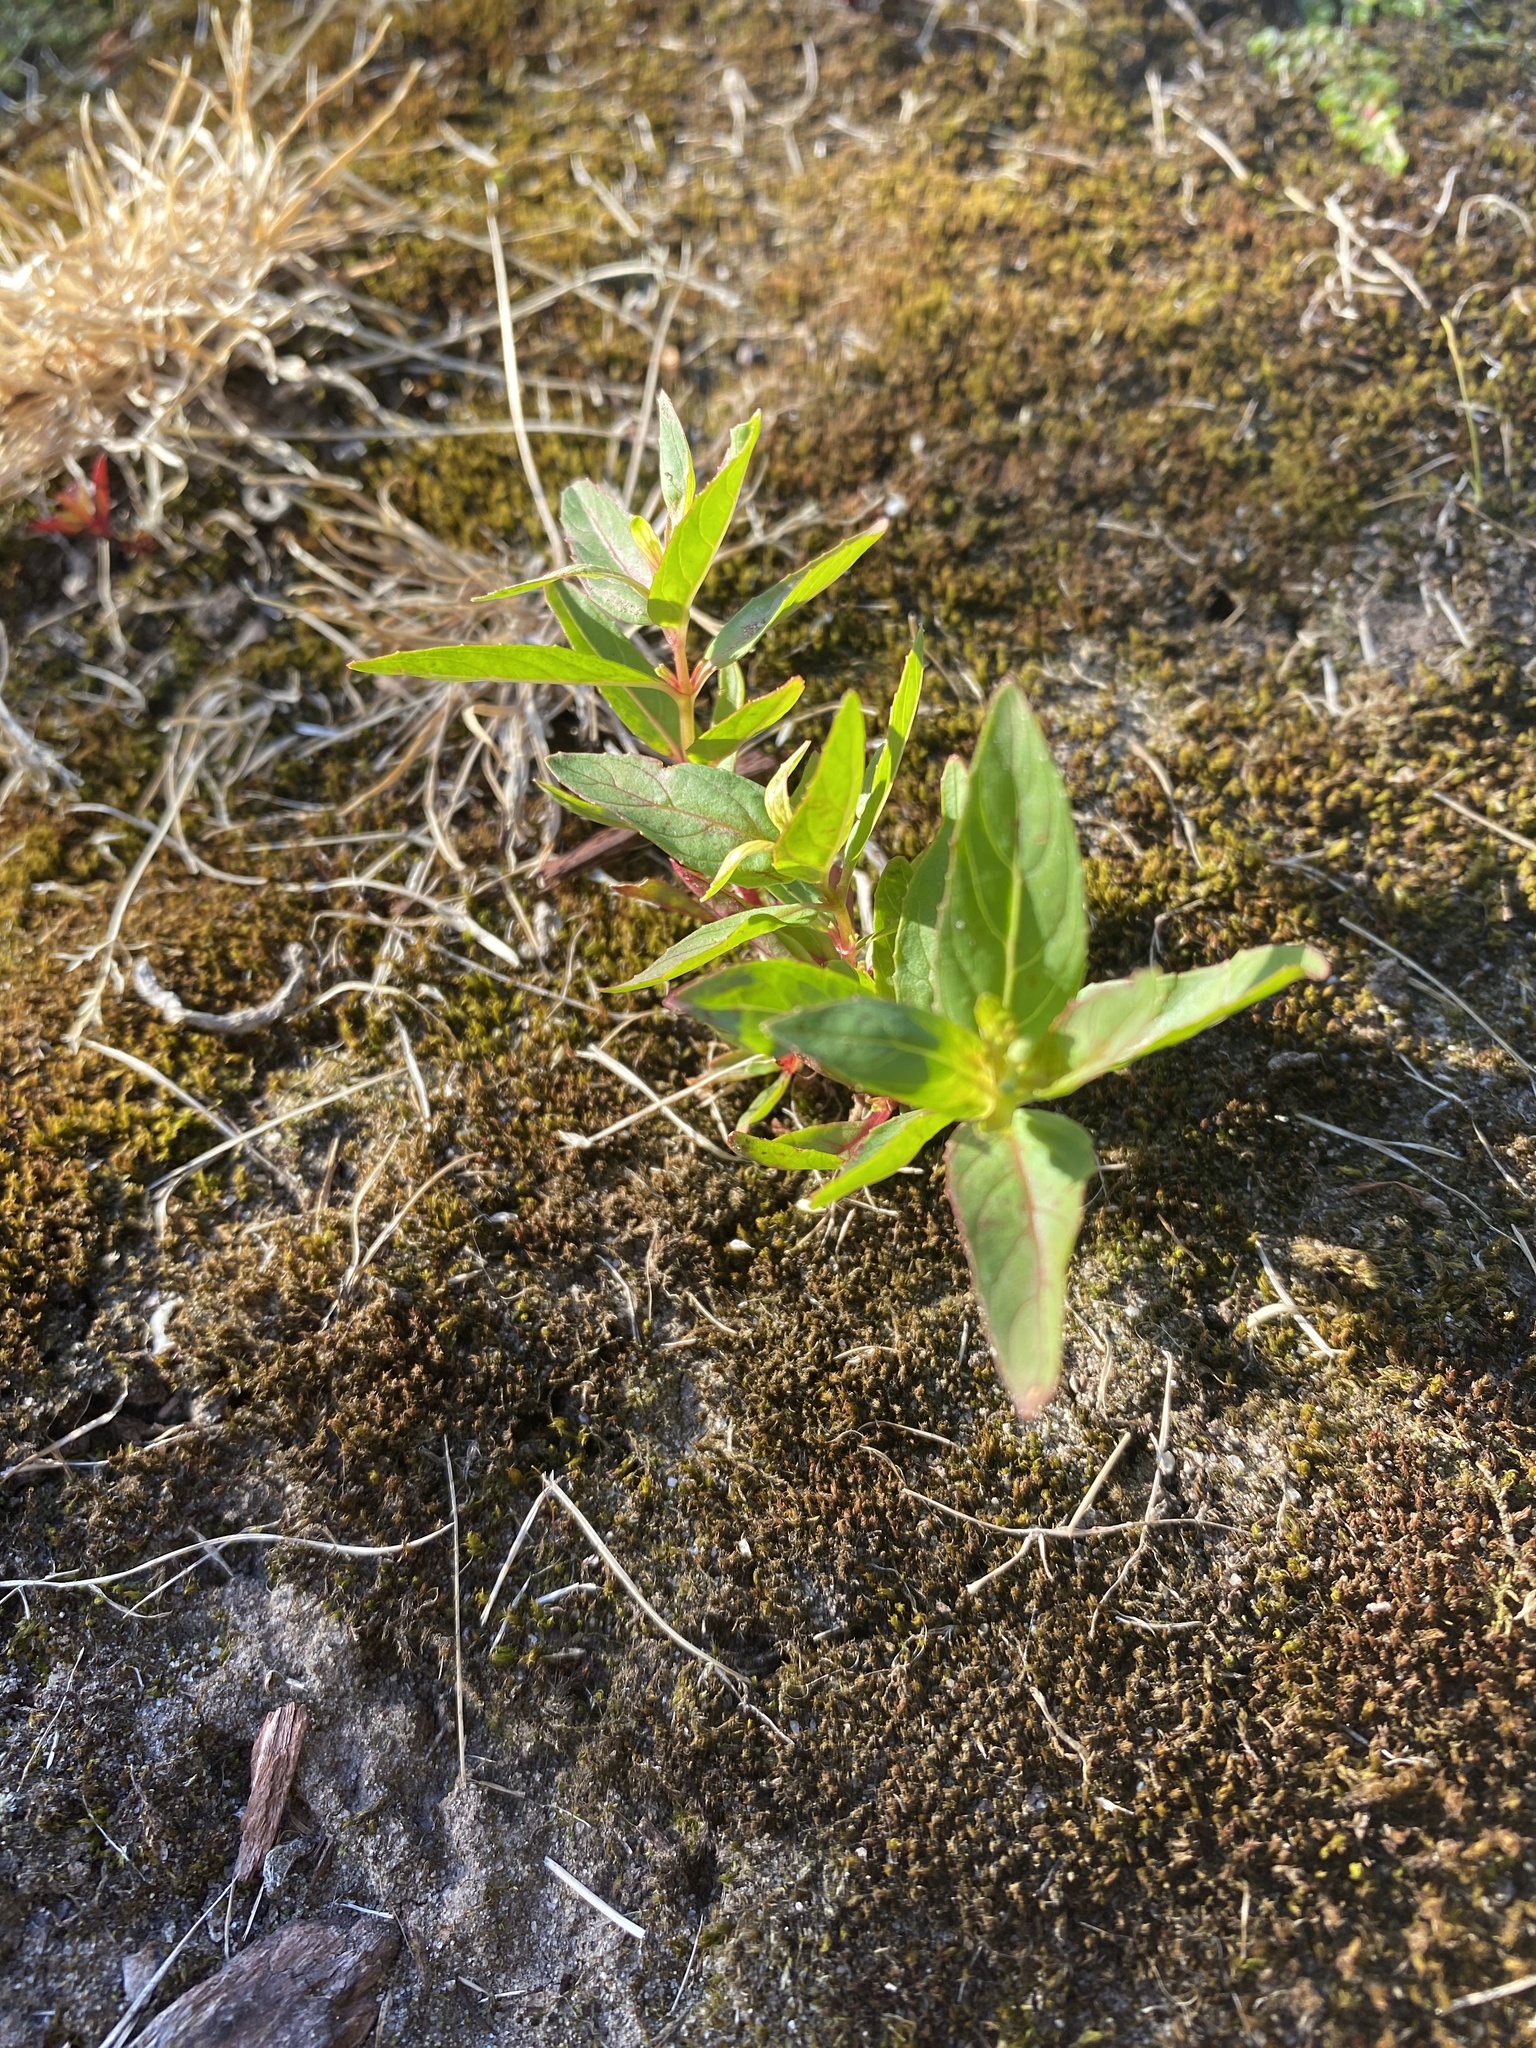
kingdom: Plantae
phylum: Tracheophyta
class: Magnoliopsida
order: Myrtales
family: Onagraceae
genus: Epilobium
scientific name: Epilobium ciliatum
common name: American willowherb
